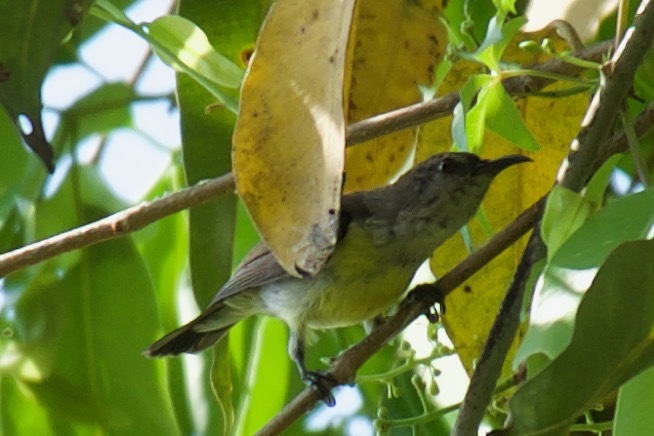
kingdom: Animalia
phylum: Chordata
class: Aves
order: Passeriformes
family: Nectariniidae
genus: Leptocoma
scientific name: Leptocoma zeylonica
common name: Purple-rumped sunbird
